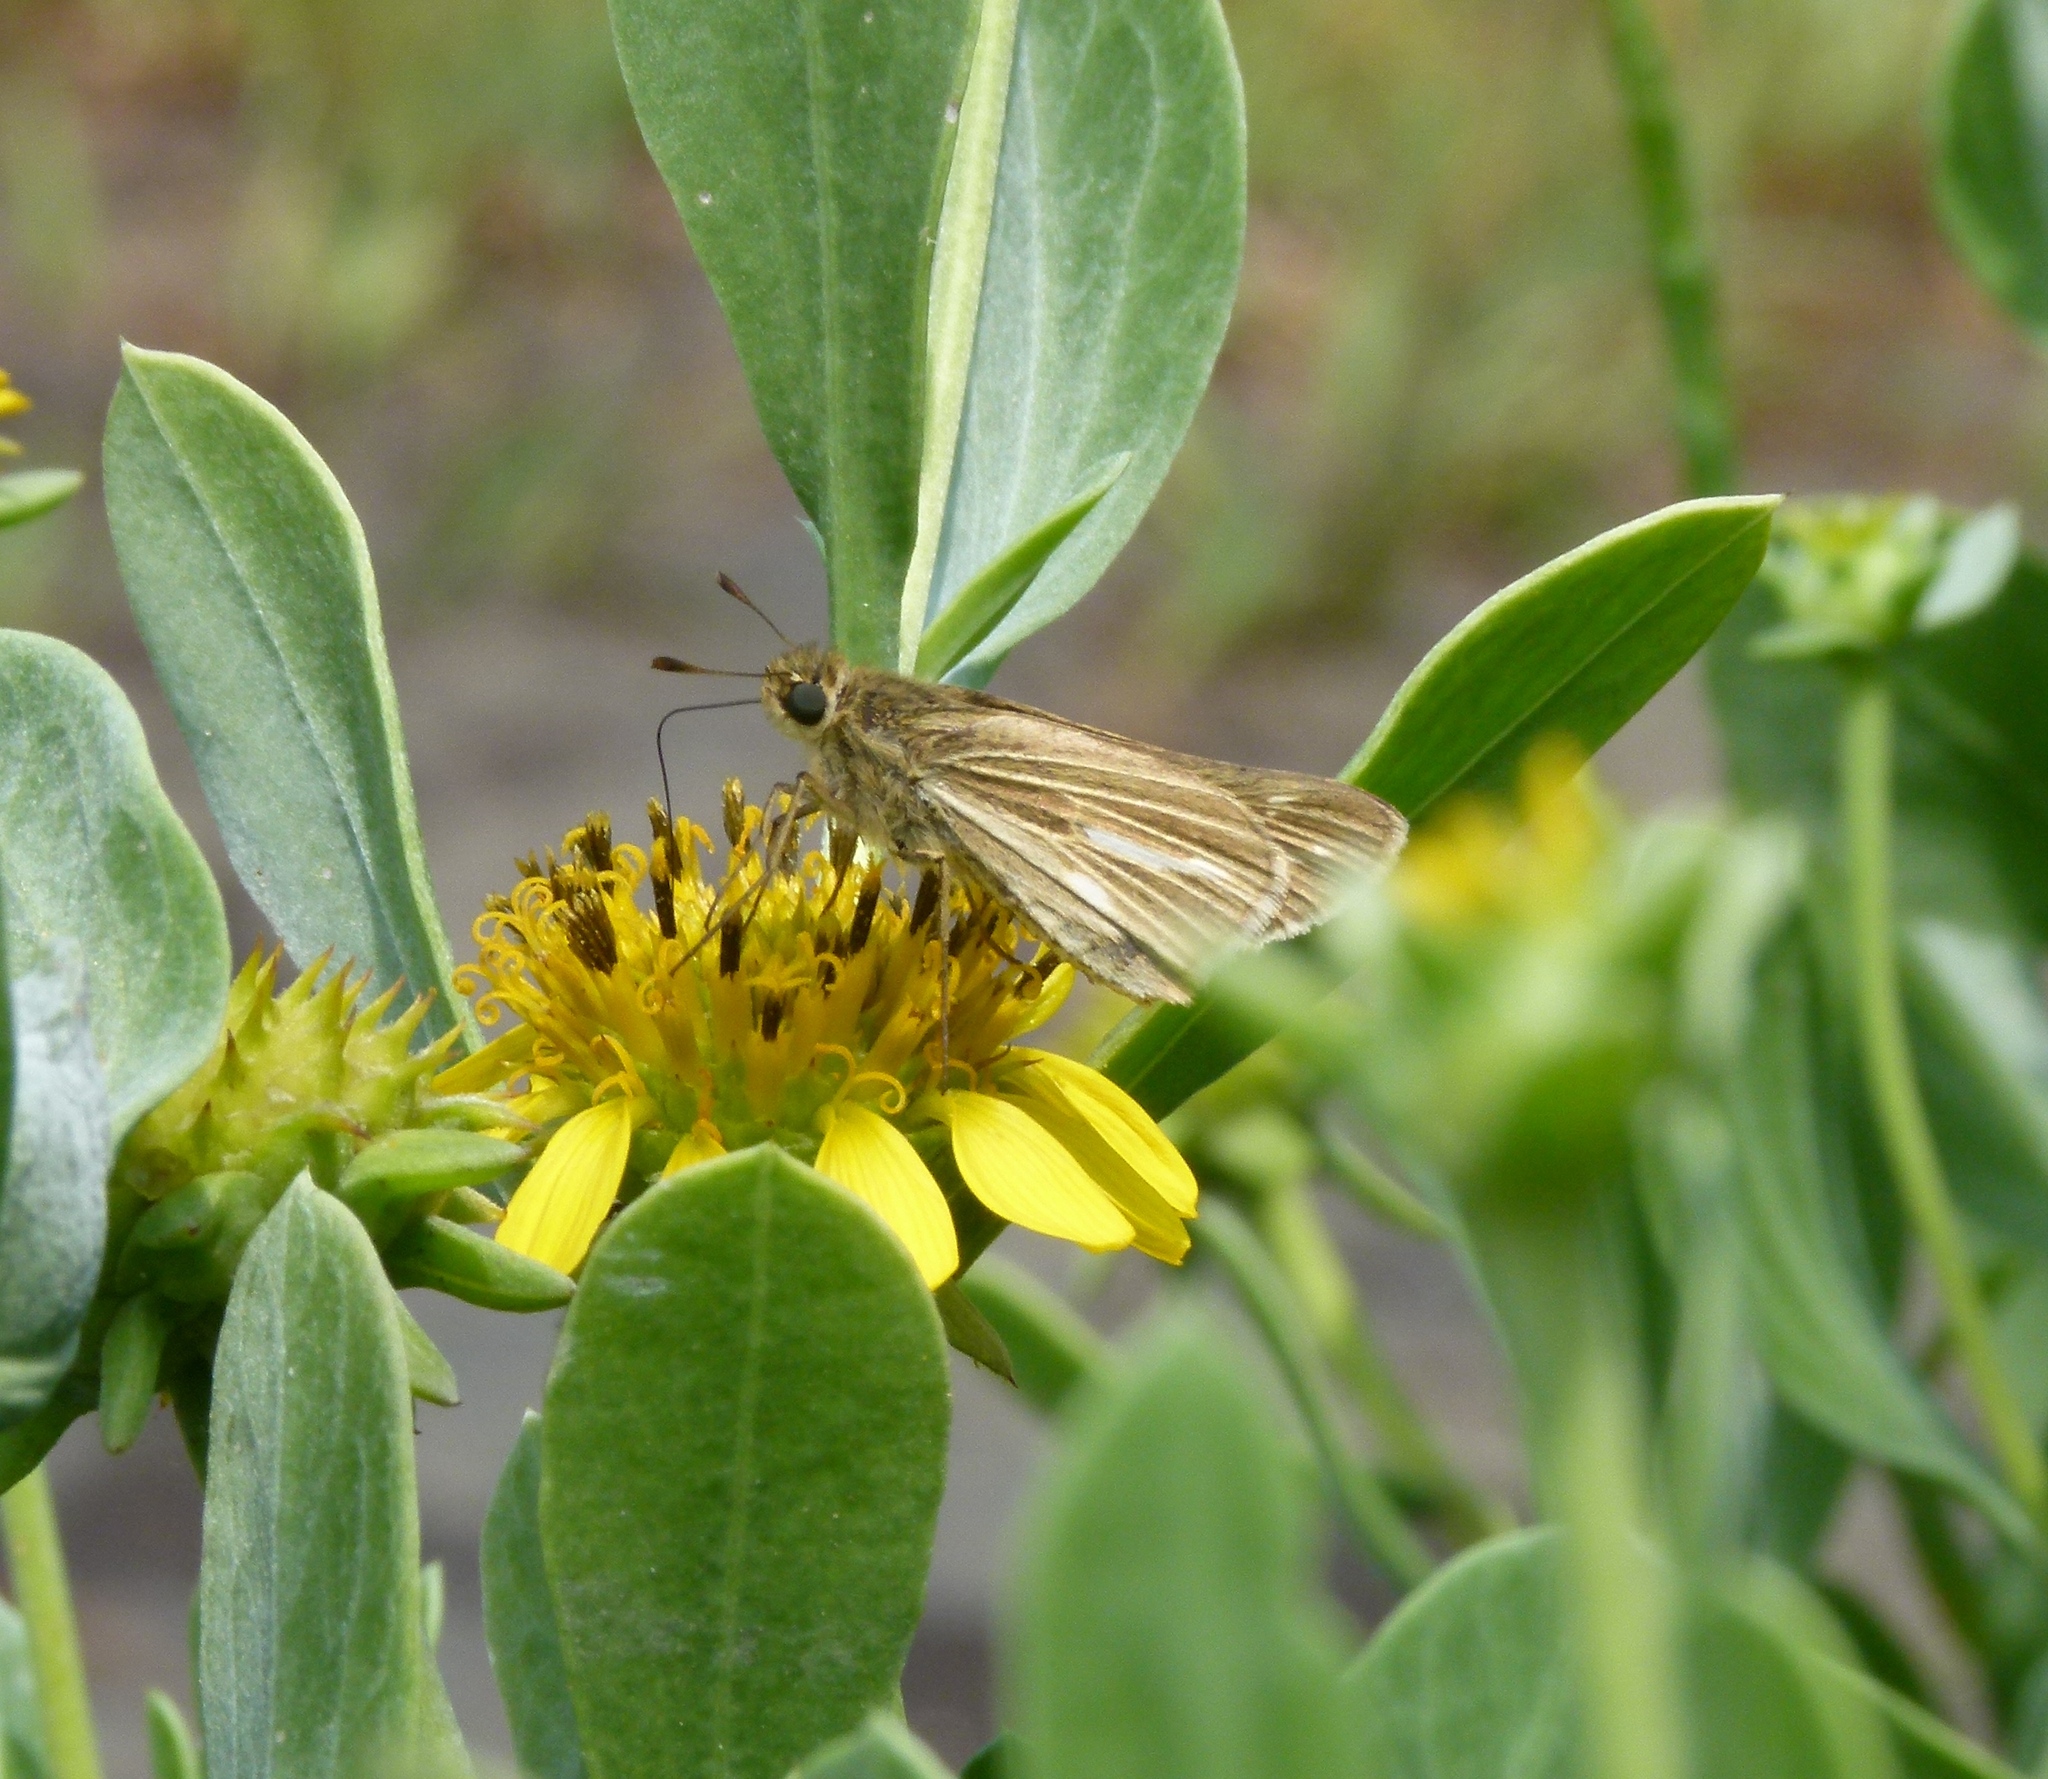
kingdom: Animalia
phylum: Arthropoda
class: Insecta
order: Lepidoptera
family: Hesperiidae
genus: Panoquina
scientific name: Panoquina panoquin
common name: Salt marsh skipper
